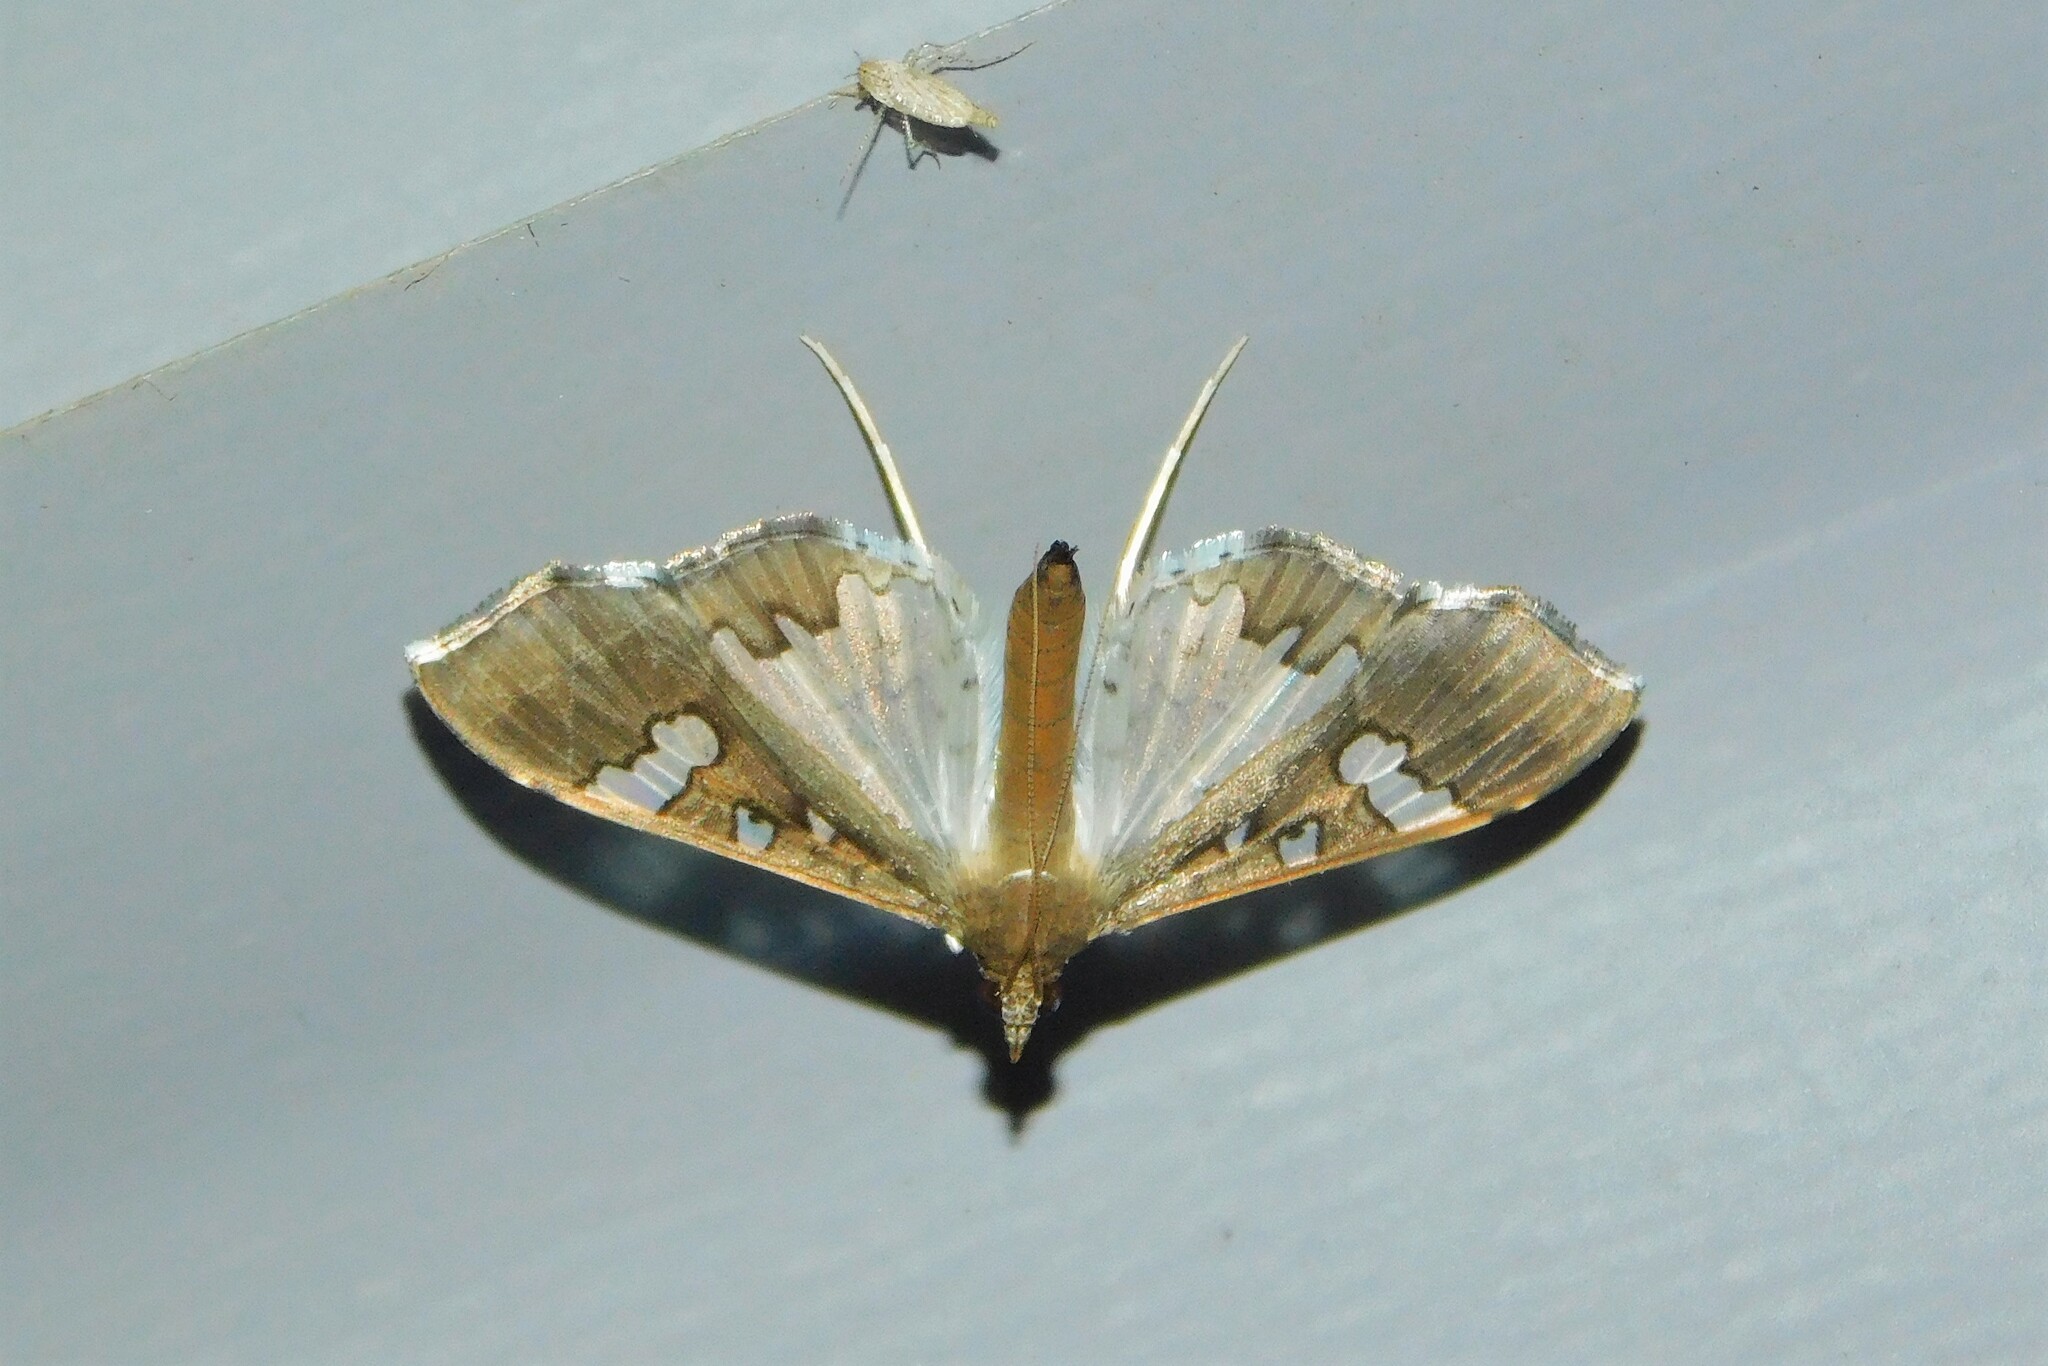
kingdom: Animalia
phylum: Arthropoda
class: Insecta
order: Lepidoptera
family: Crambidae
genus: Maruca
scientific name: Maruca vitrata
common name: Maruca pod borer
